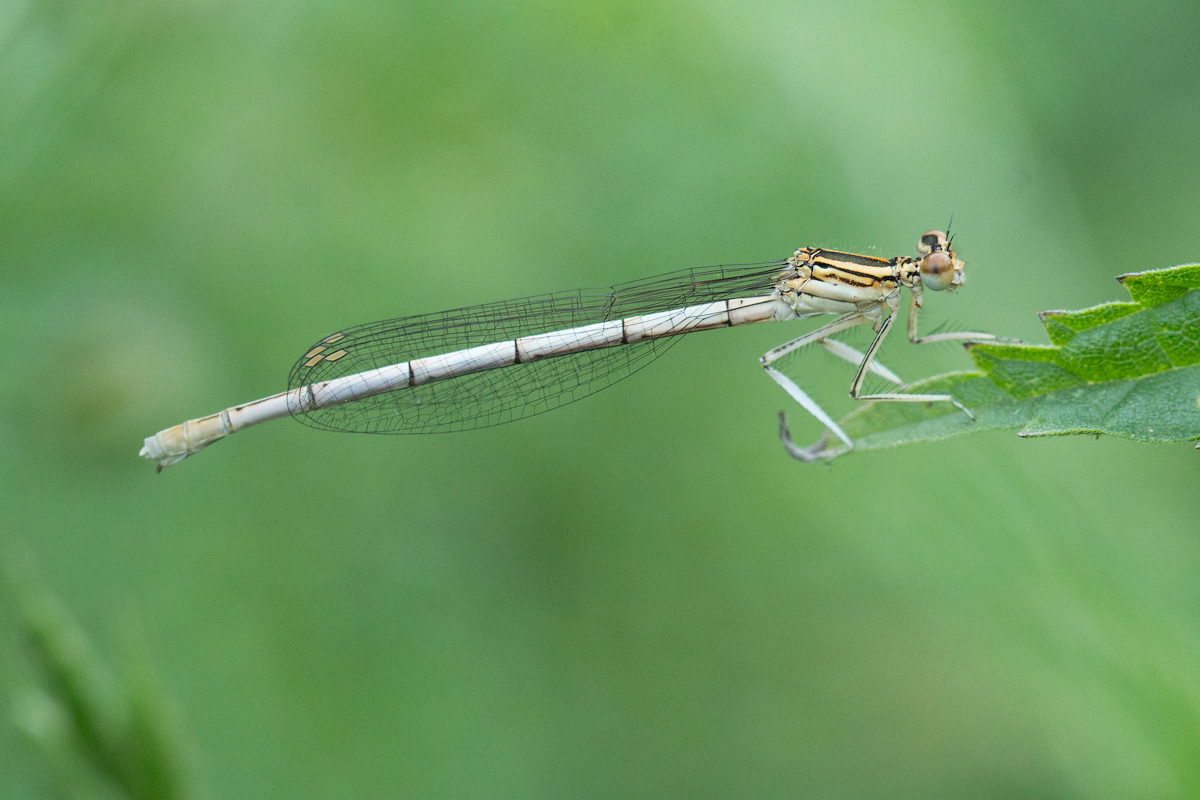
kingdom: Animalia
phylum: Arthropoda
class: Insecta
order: Odonata
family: Platycnemididae
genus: Platycnemis
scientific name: Platycnemis pennipes
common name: White-legged damselfly
